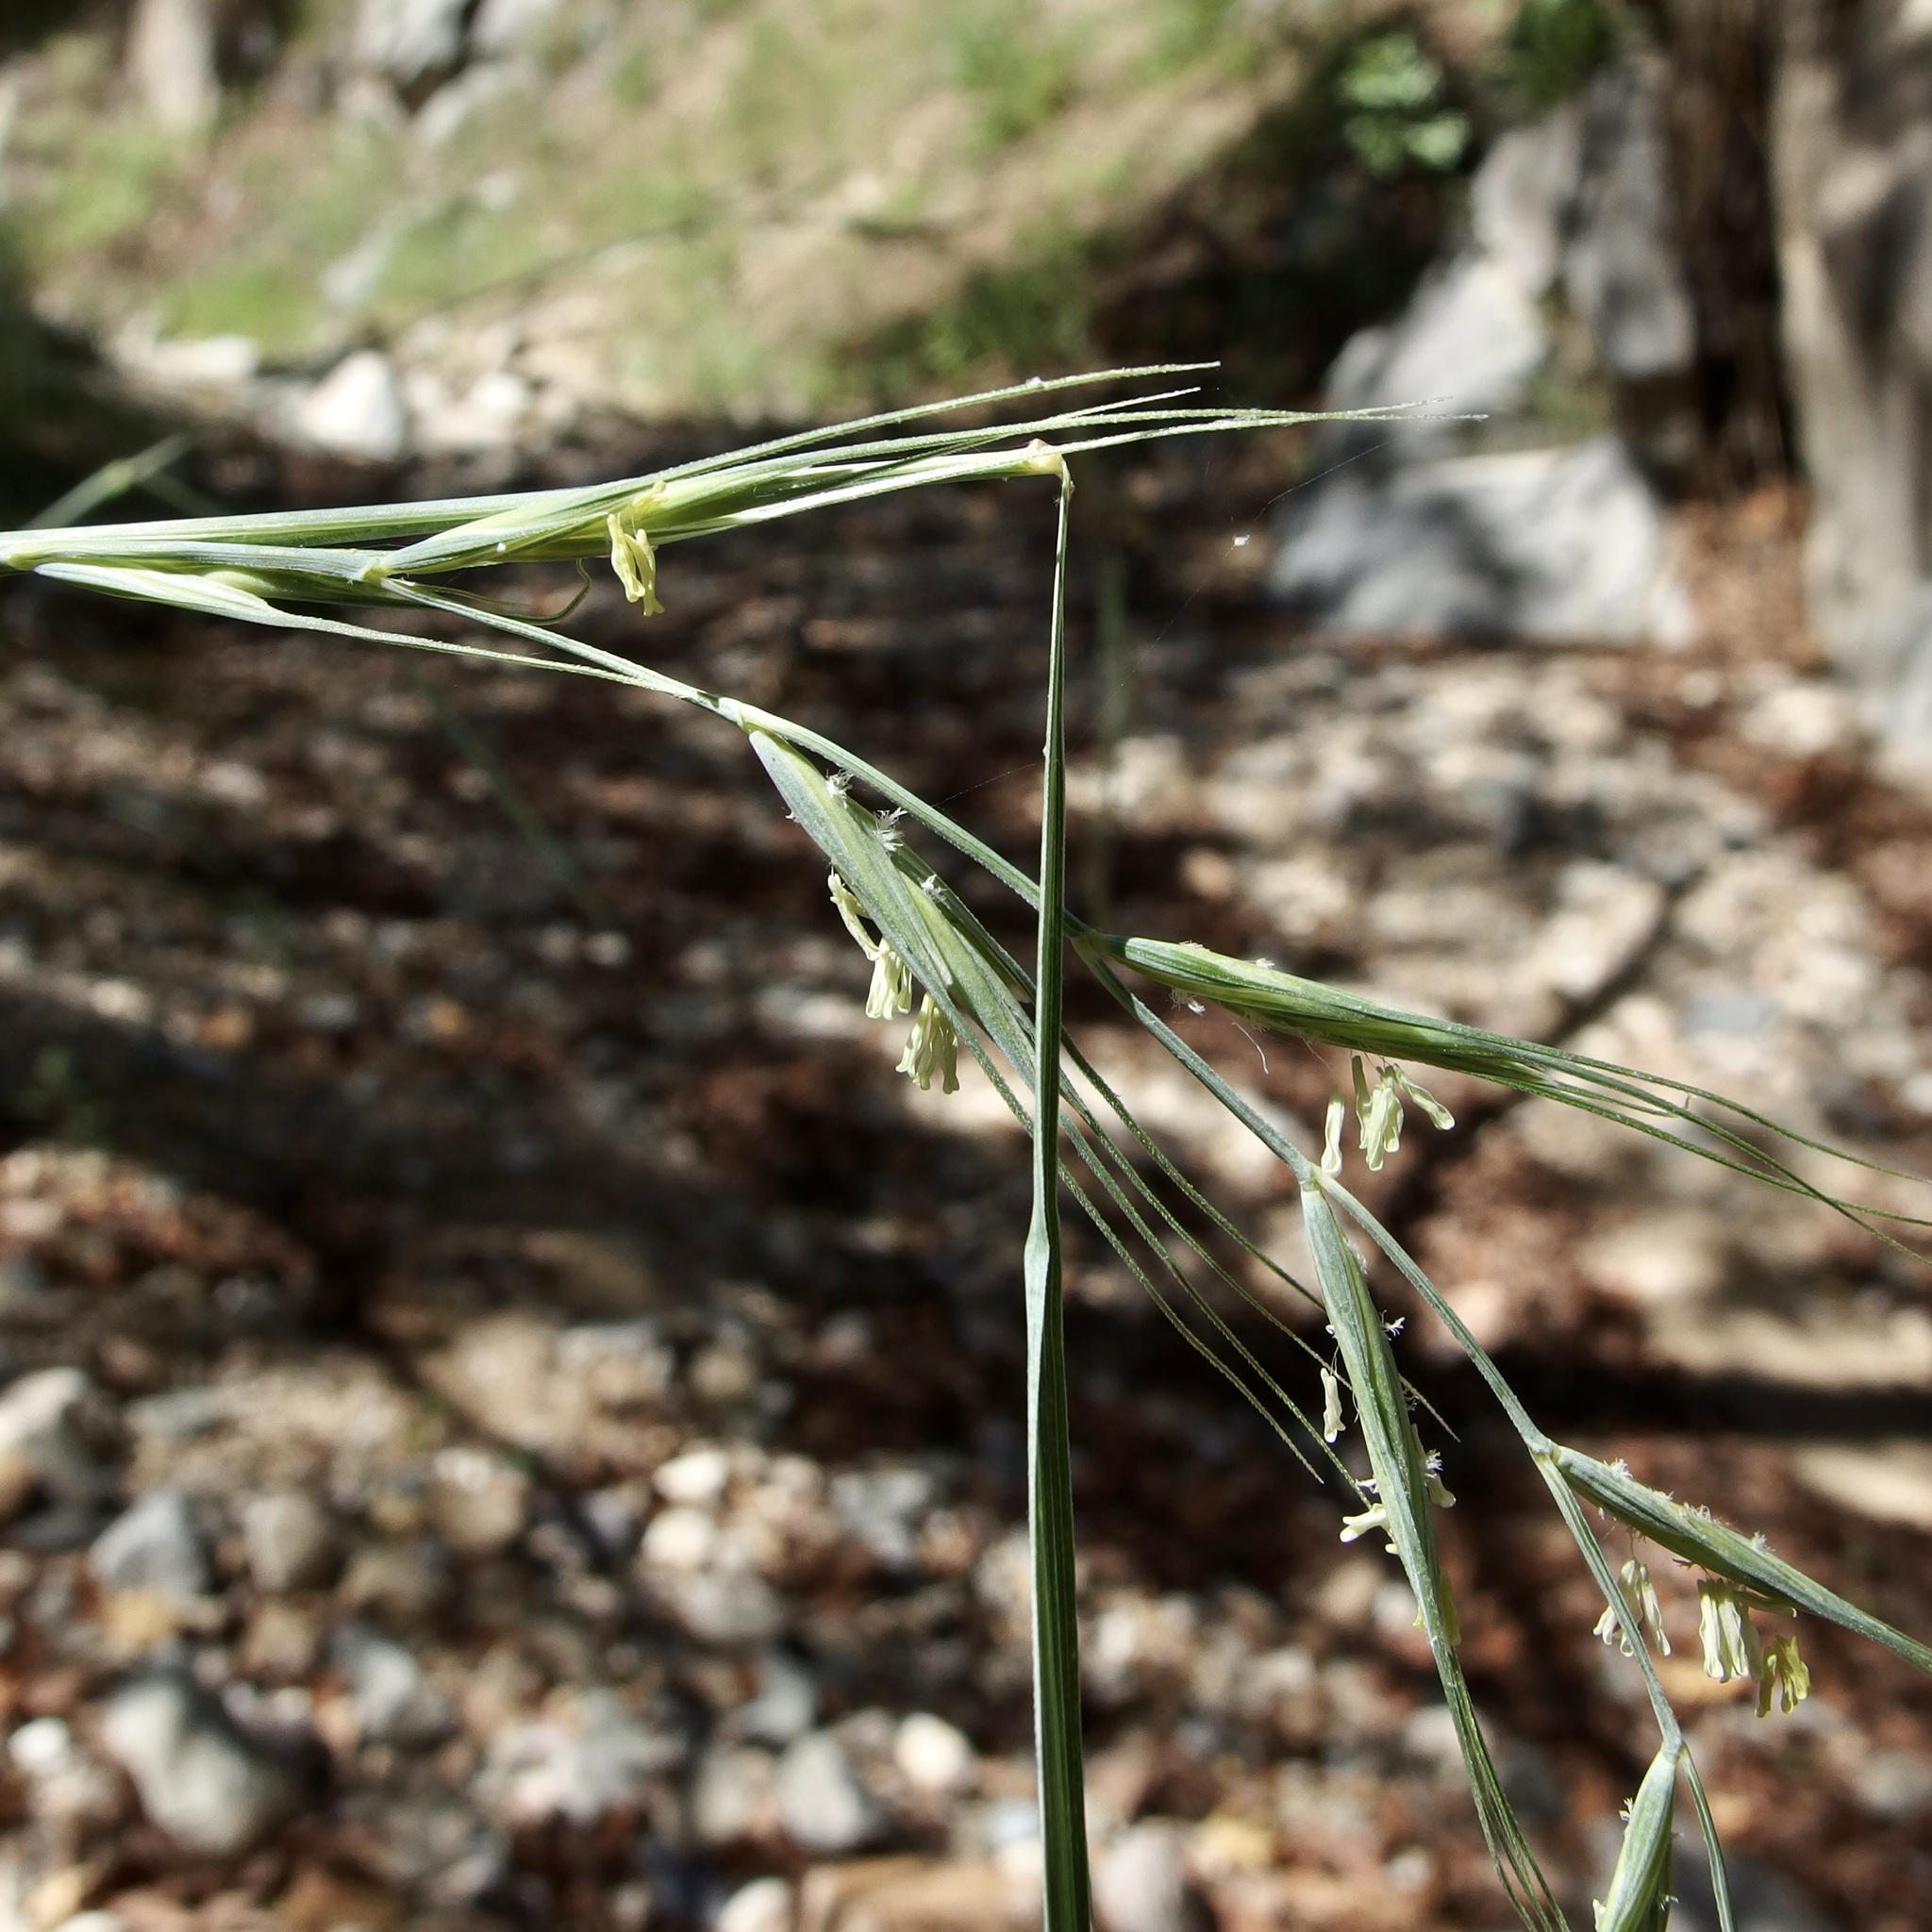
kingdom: Plantae
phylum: Tracheophyta
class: Liliopsida
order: Poales
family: Poaceae
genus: Elymus
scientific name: Elymus arizonicus
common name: Arizona wheatgrass
